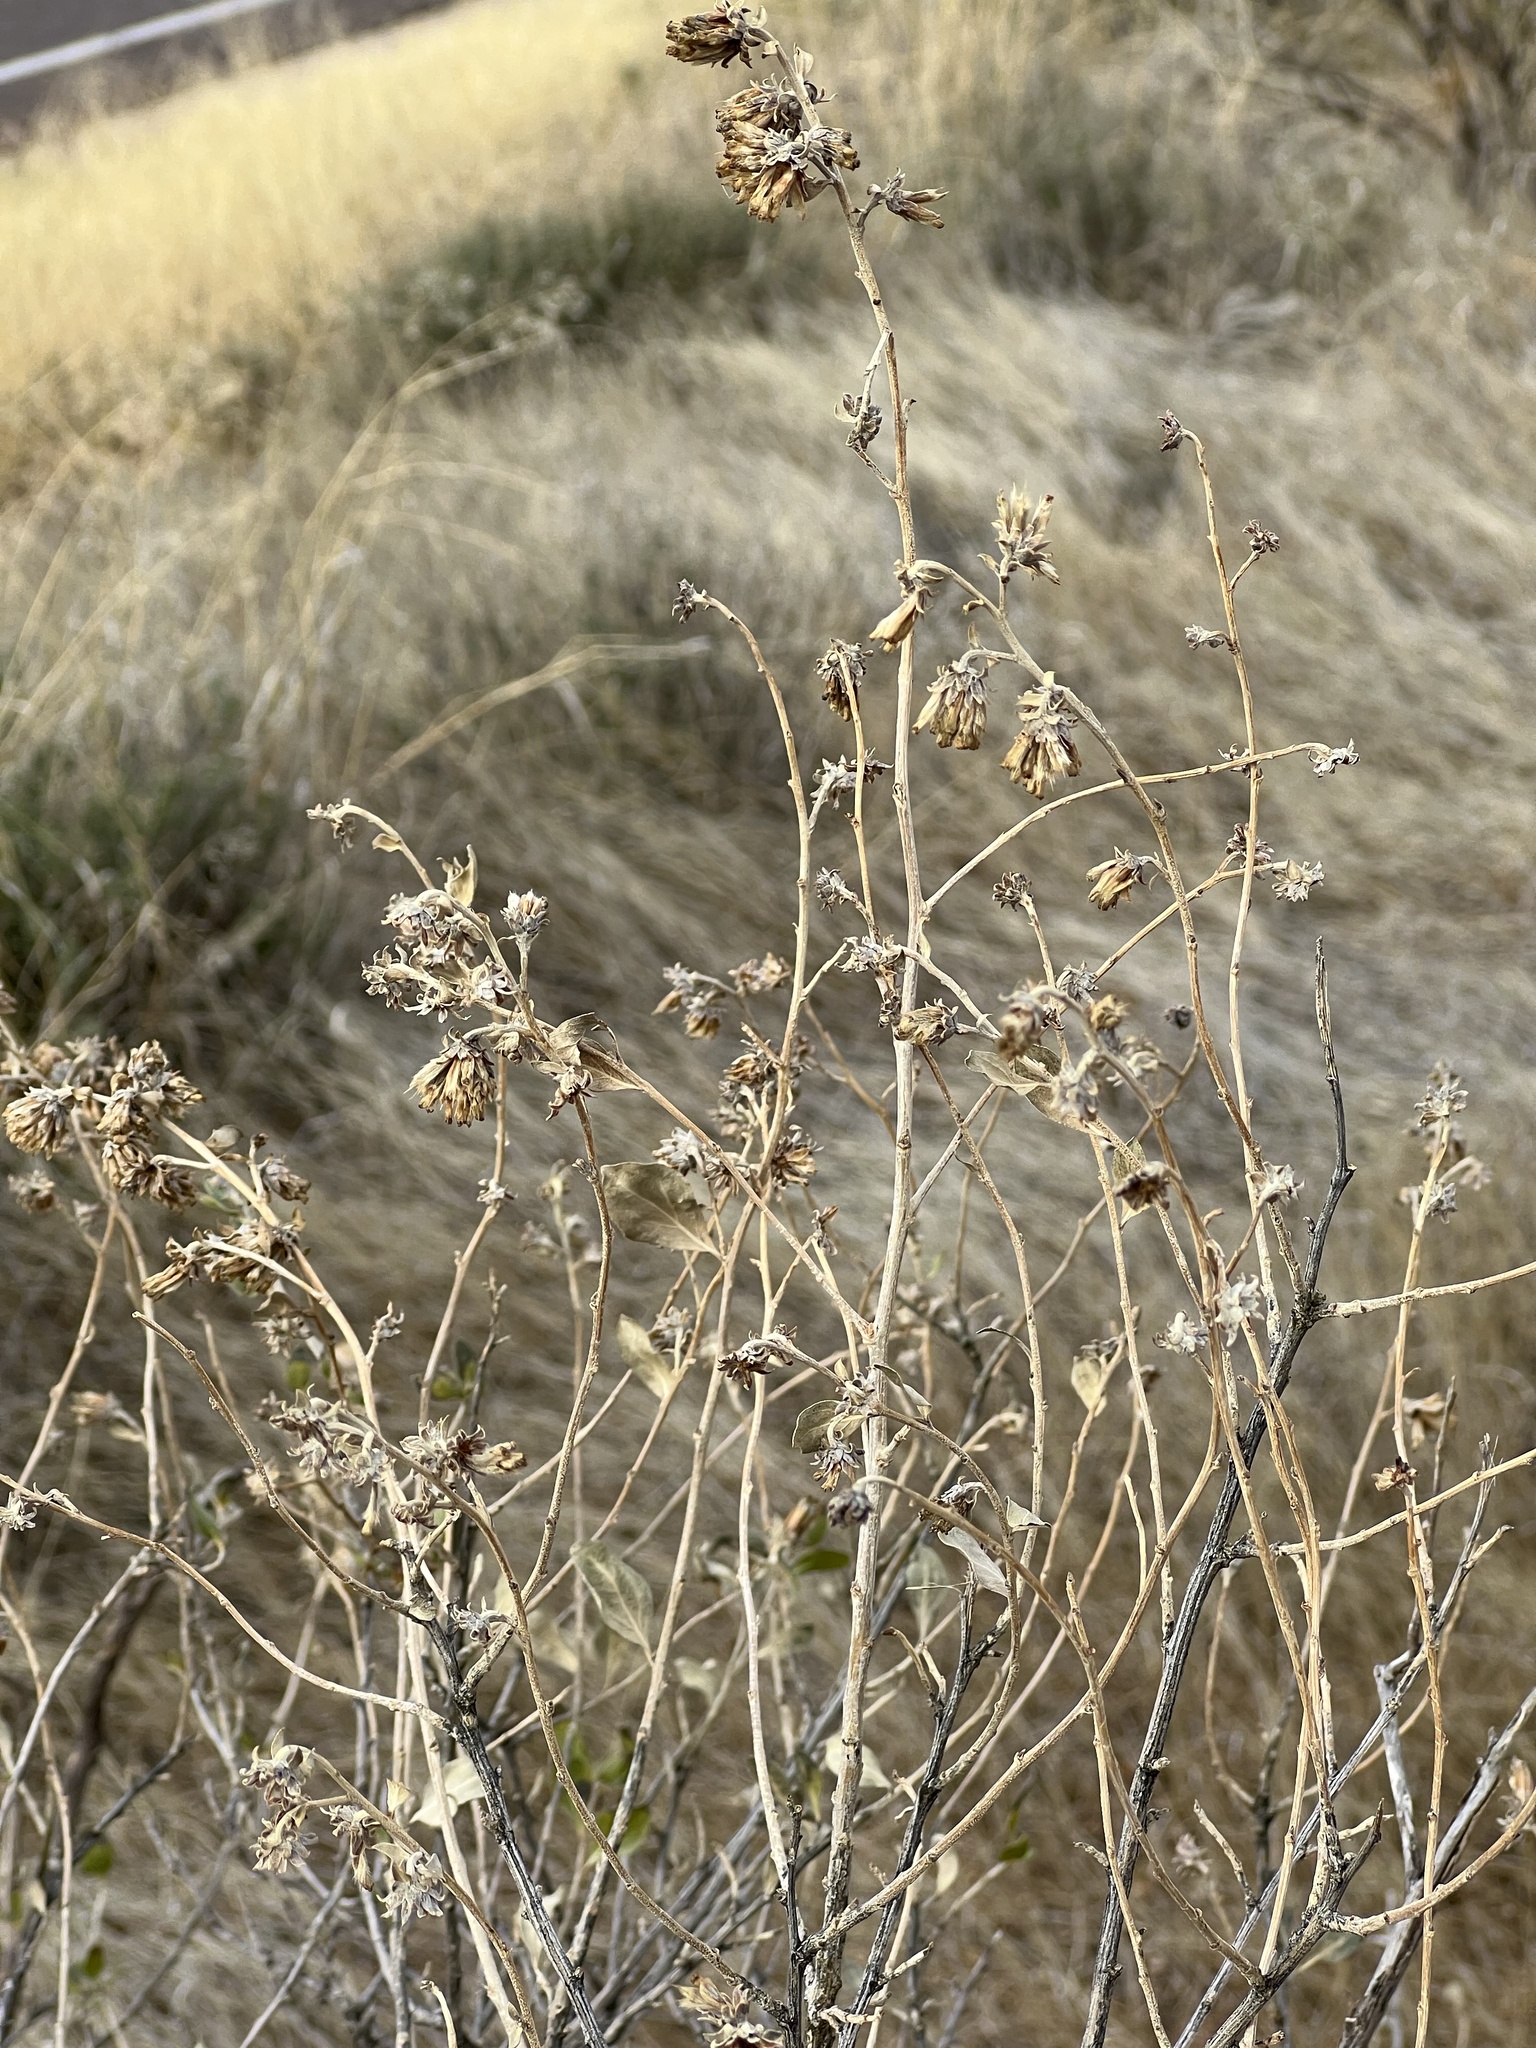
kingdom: Plantae
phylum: Tracheophyta
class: Magnoliopsida
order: Asterales
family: Asteraceae
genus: Flourensia
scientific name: Flourensia cernua
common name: Varnishbush
